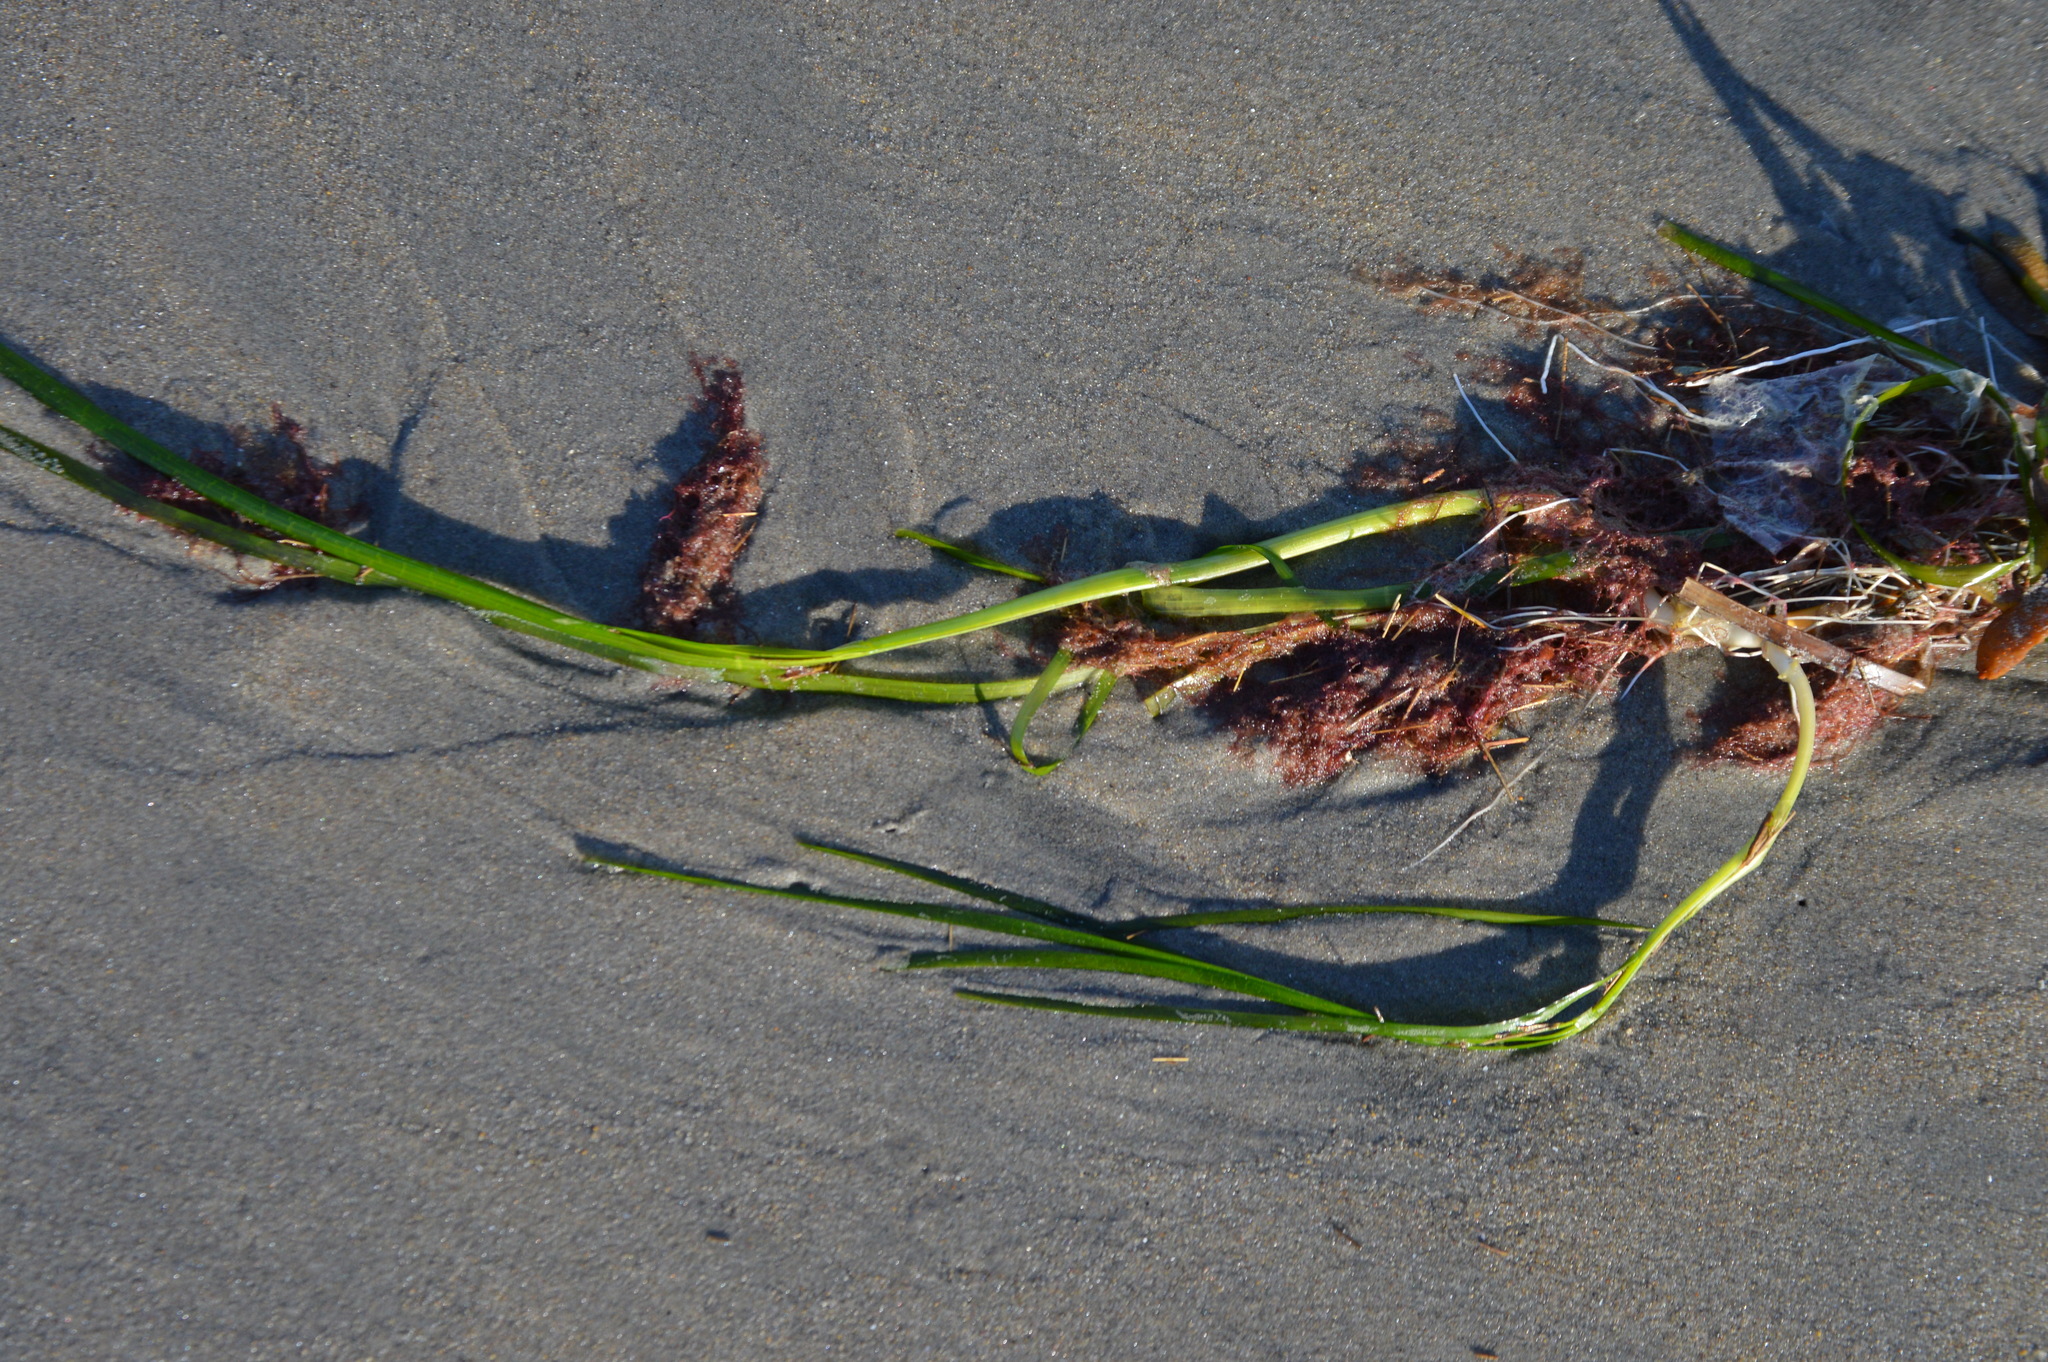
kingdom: Plantae
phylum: Tracheophyta
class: Liliopsida
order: Alismatales
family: Zosteraceae
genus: Zostera
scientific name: Zostera marina
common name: Eelgrass
